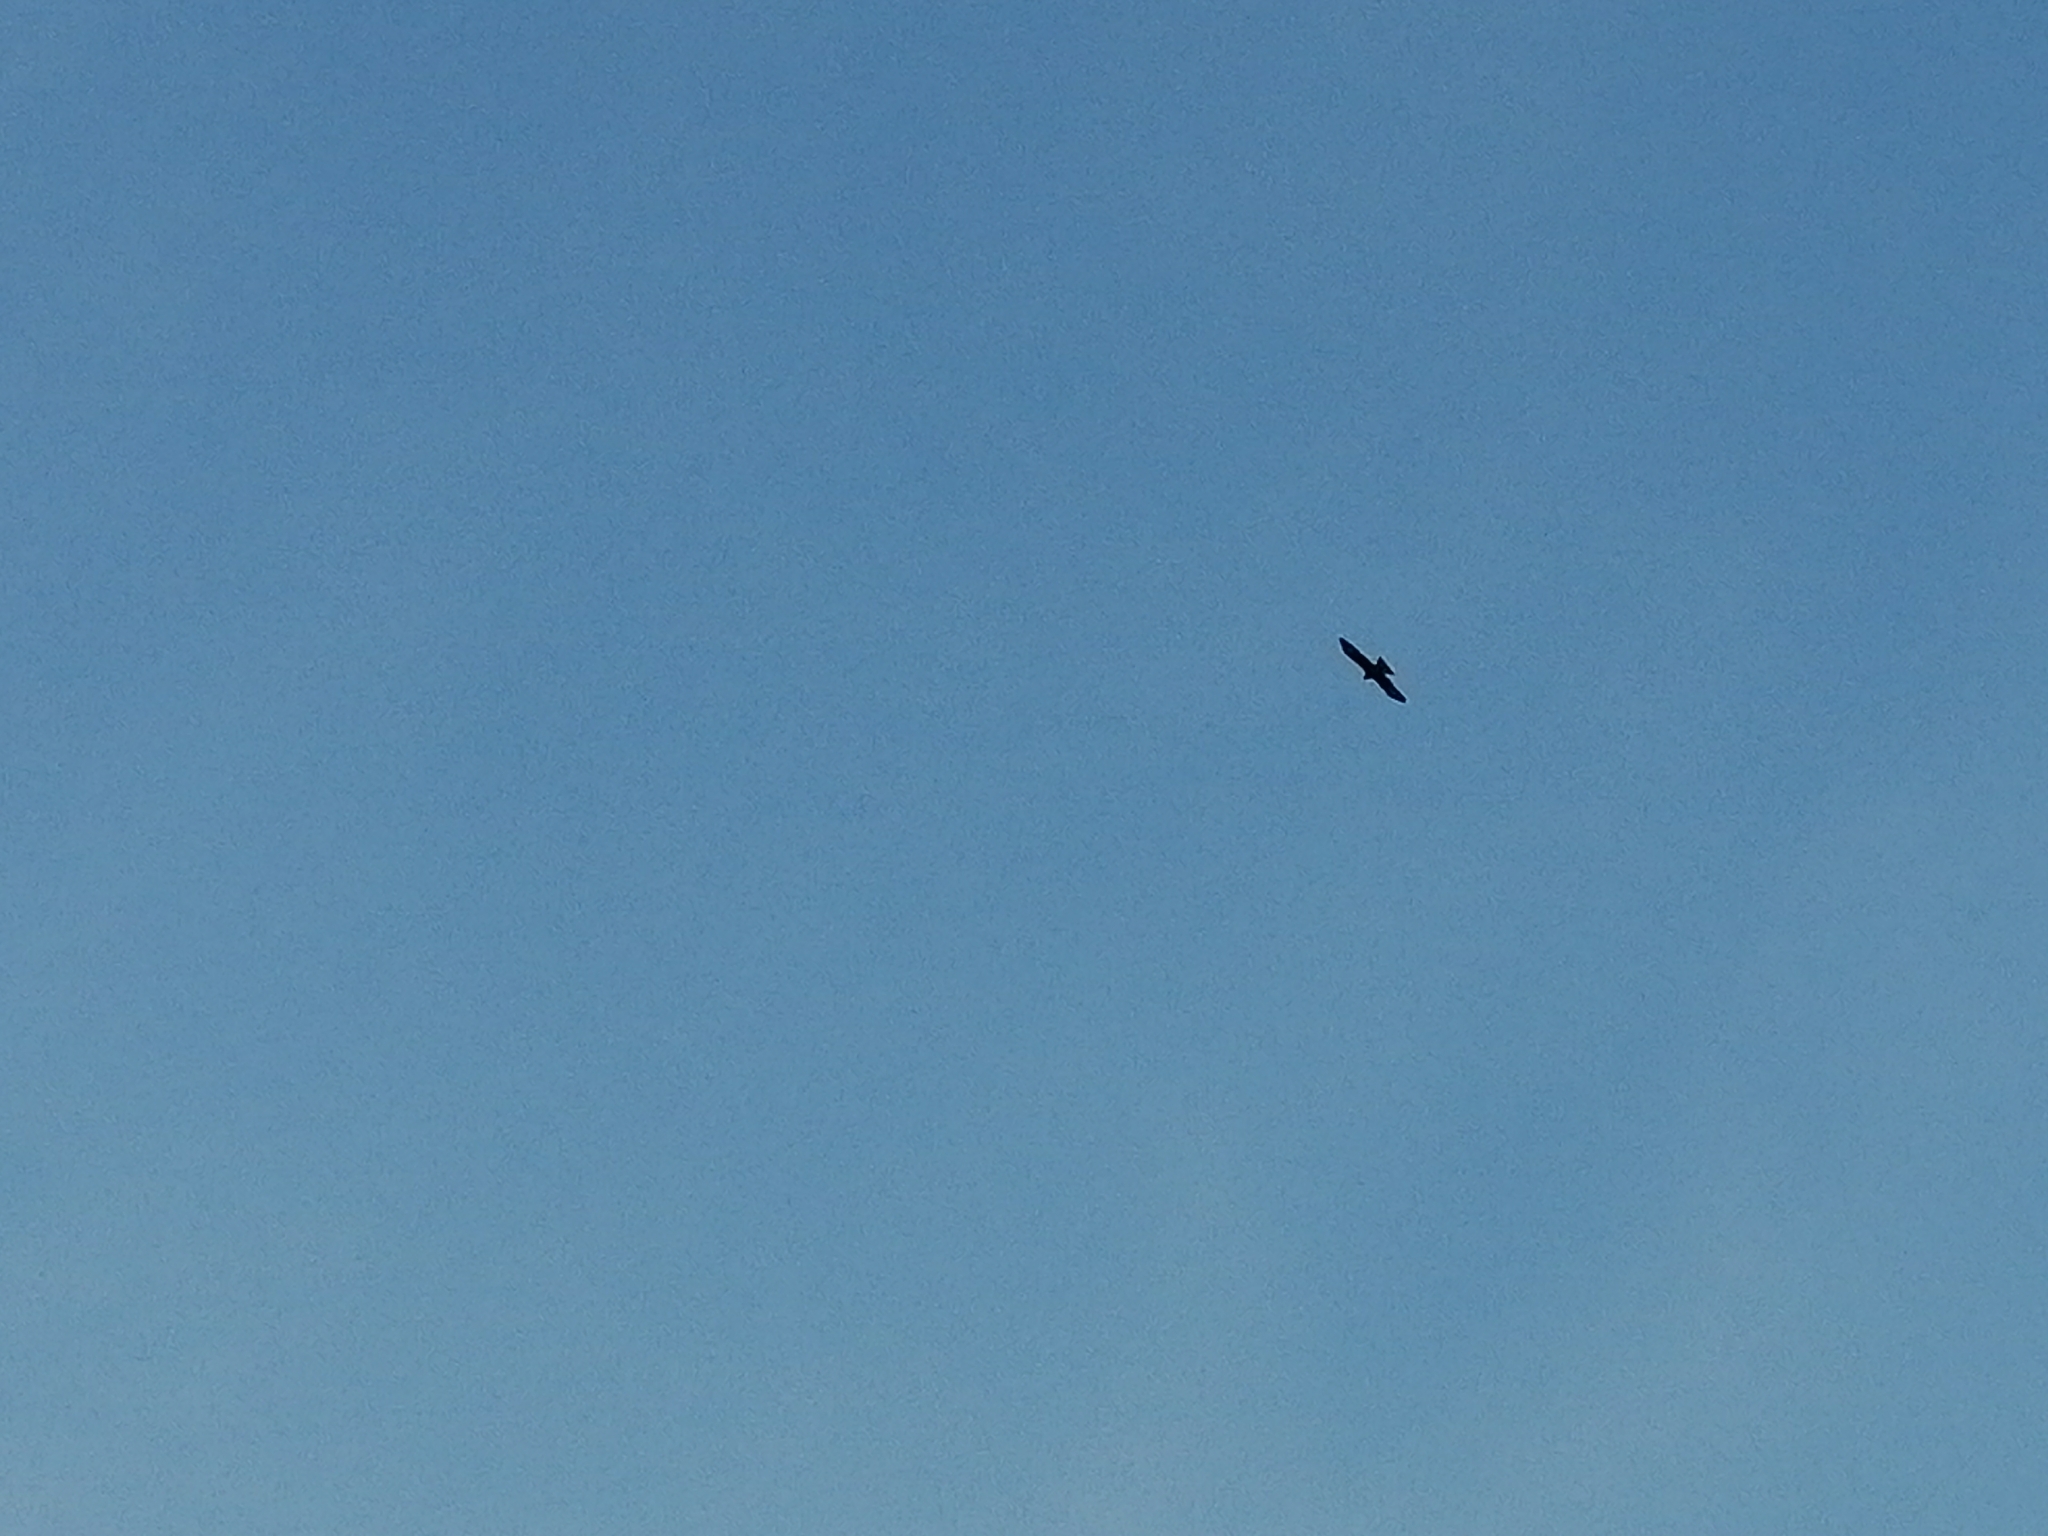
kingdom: Animalia
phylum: Chordata
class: Aves
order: Accipitriformes
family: Accipitridae
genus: Milvus
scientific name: Milvus migrans
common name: Black kite
